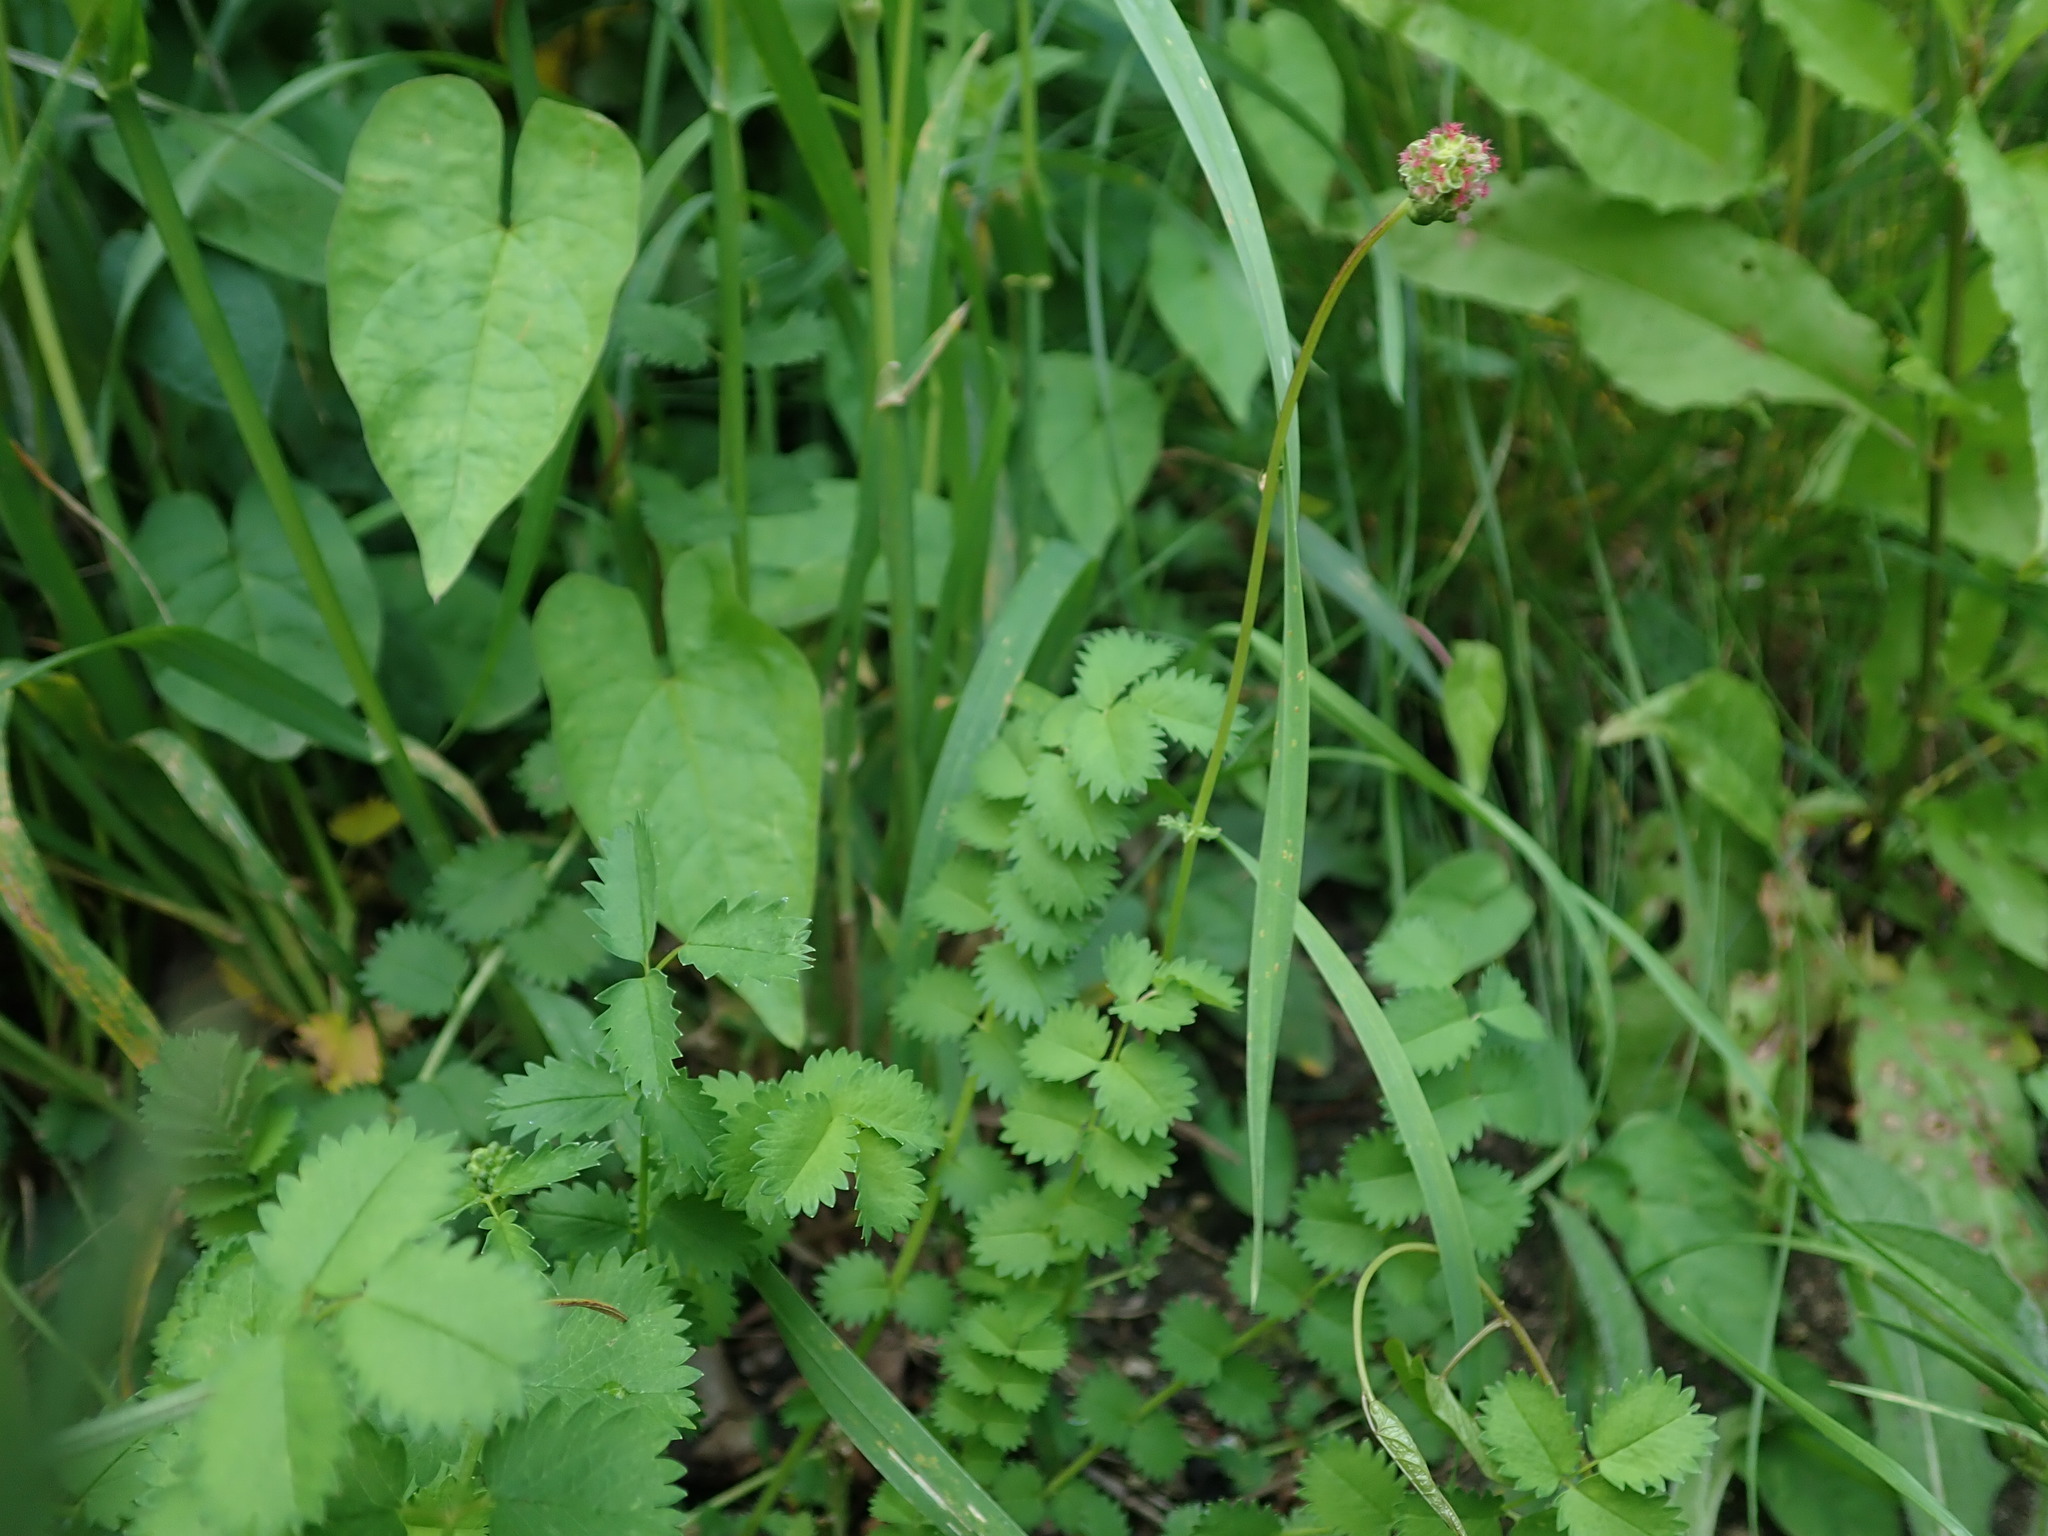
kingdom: Plantae
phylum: Tracheophyta
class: Magnoliopsida
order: Rosales
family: Rosaceae
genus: Poterium
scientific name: Poterium sanguisorba
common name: Salad burnet
